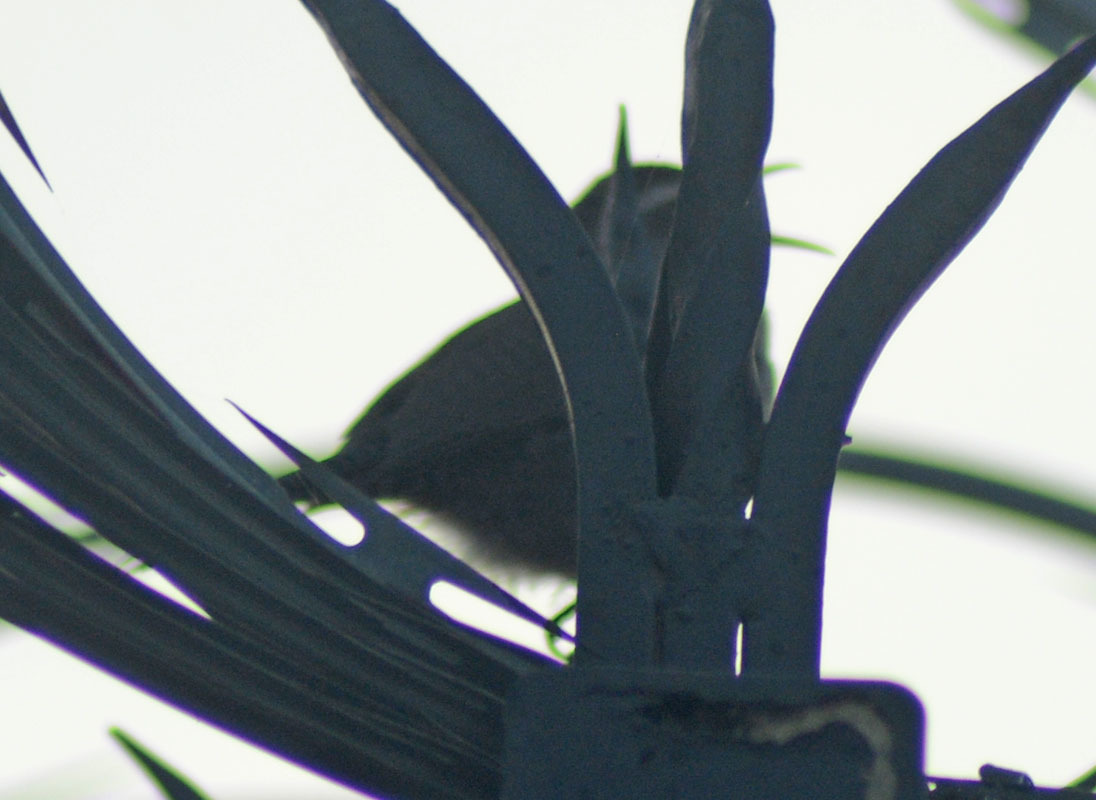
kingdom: Animalia
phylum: Chordata
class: Aves
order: Passeriformes
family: Troglodytidae
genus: Thryomanes
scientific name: Thryomanes bewickii
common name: Bewick's wren
